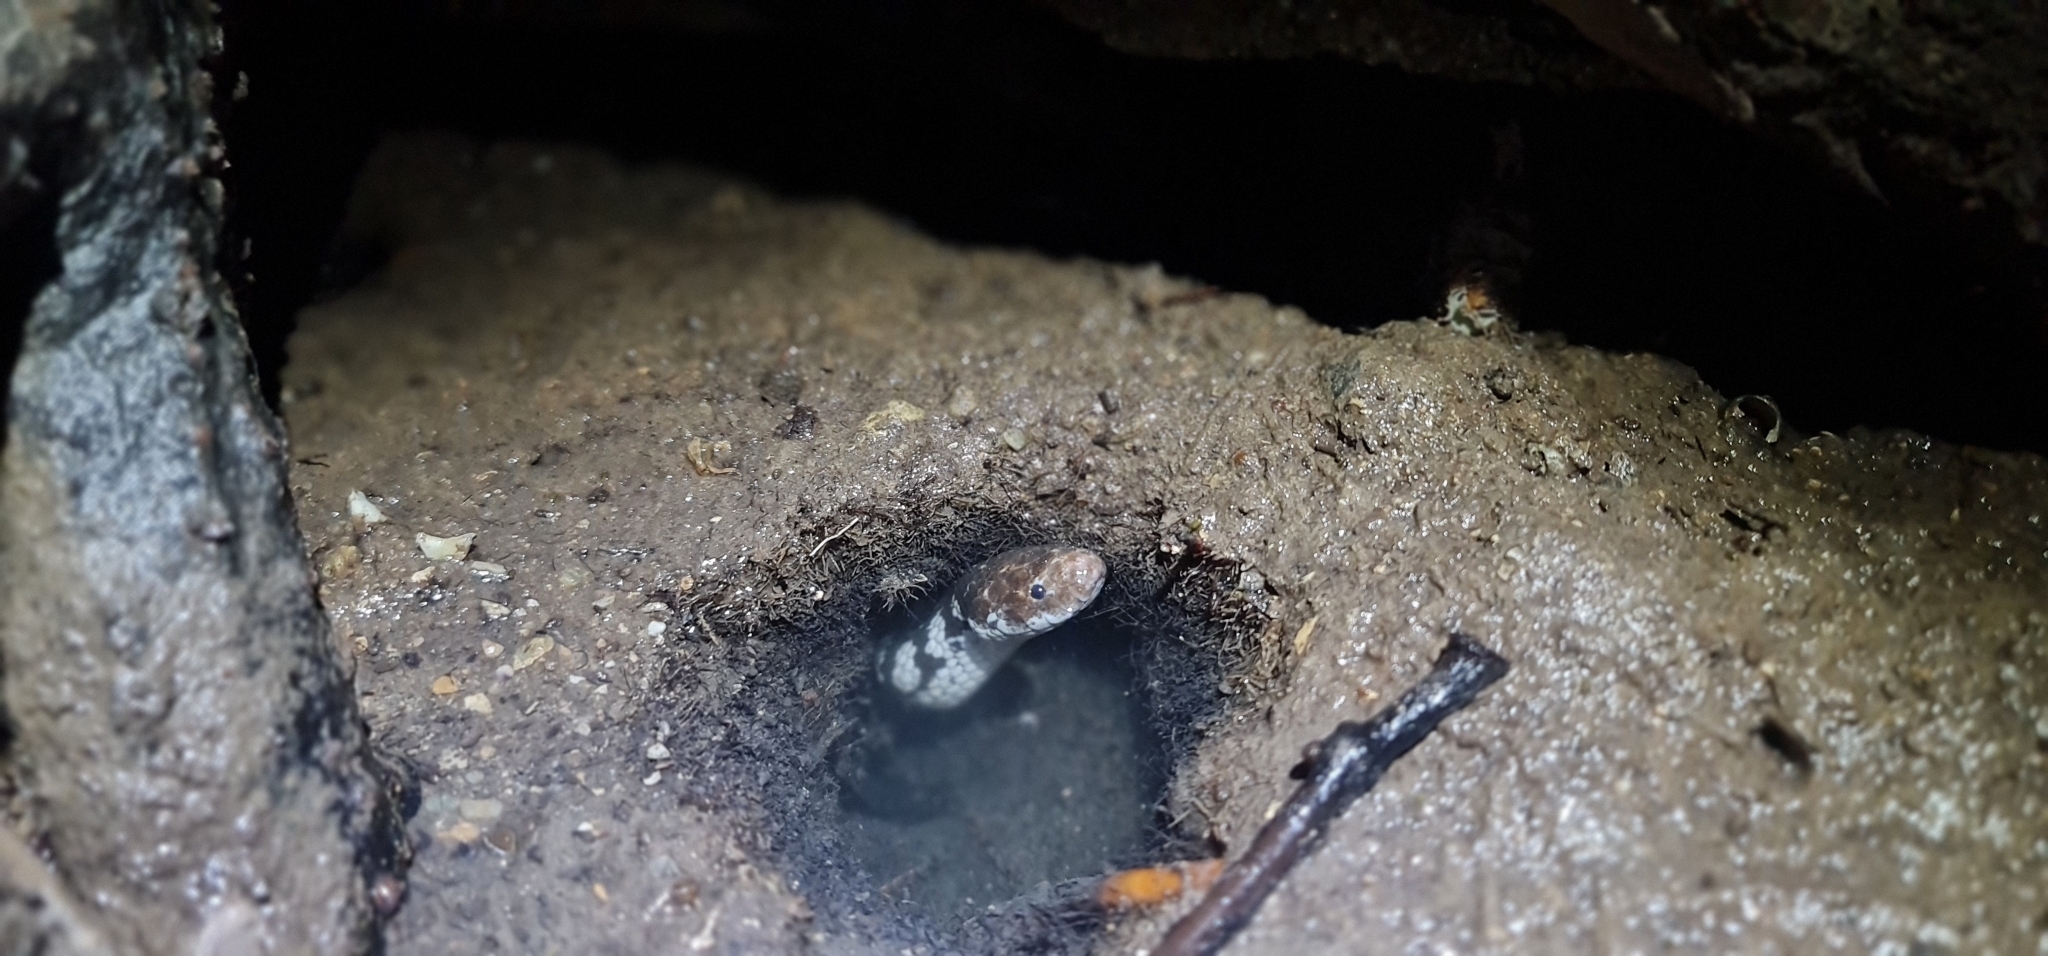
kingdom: Animalia
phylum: Chordata
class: Squamata
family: Homalopsidae
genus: Fordonia
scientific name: Fordonia leucobalia
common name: White-bellied mangrove snake
